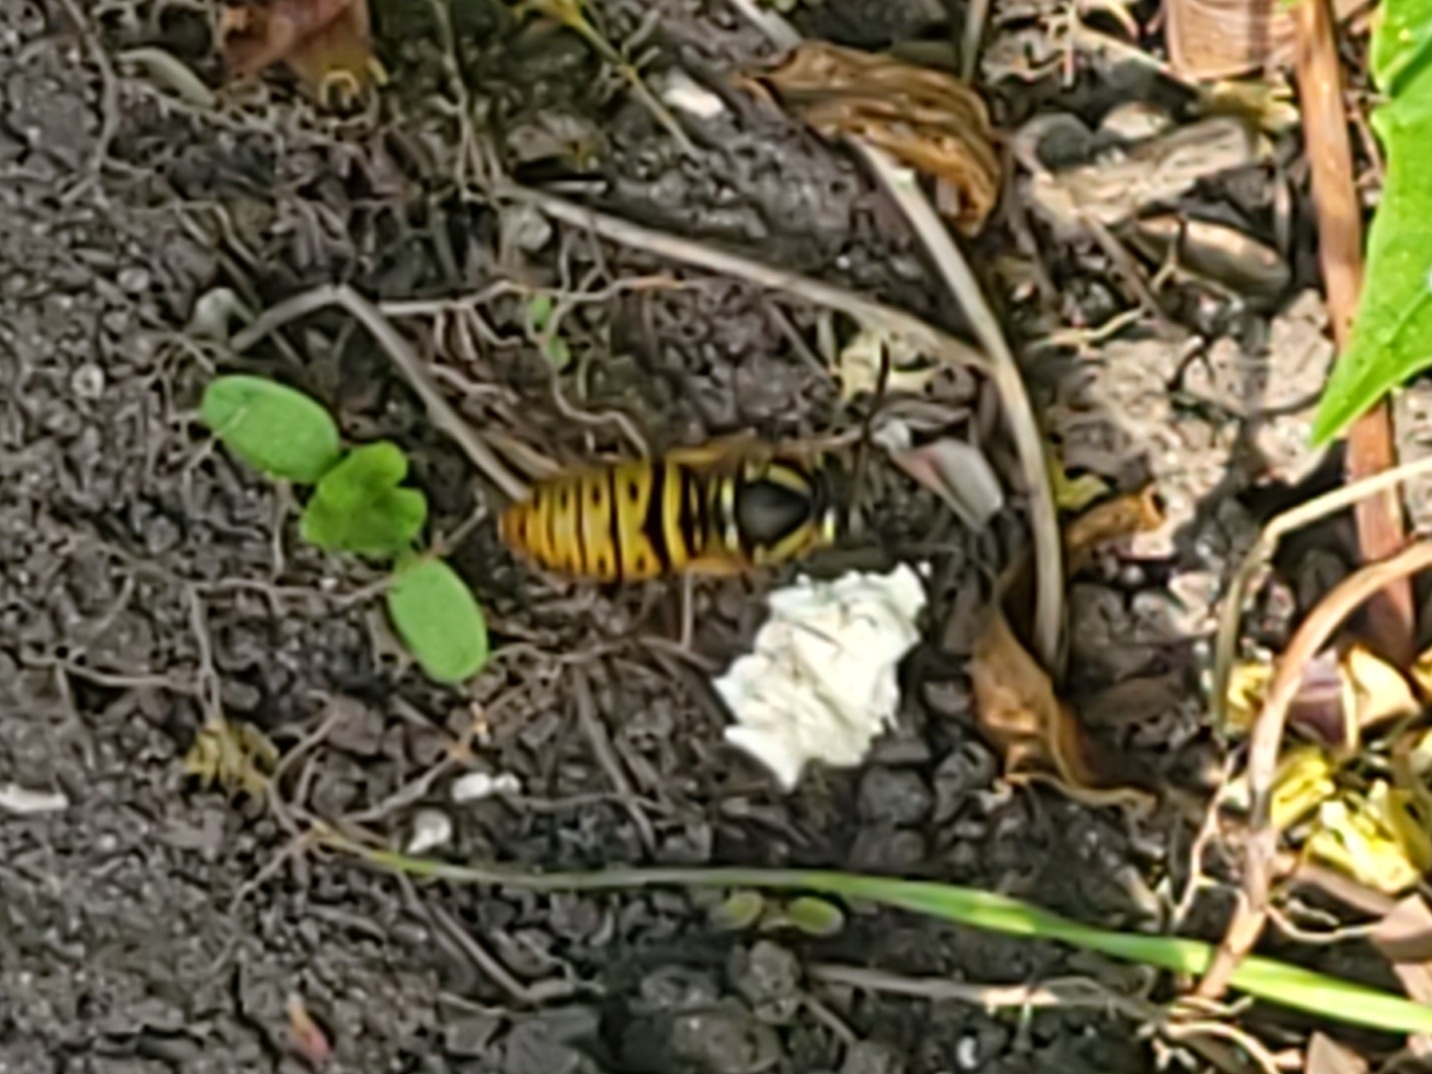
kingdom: Animalia
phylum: Arthropoda
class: Insecta
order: Hymenoptera
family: Vespidae
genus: Vespula
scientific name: Vespula maculifrons
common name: Eastern yellowjacket
